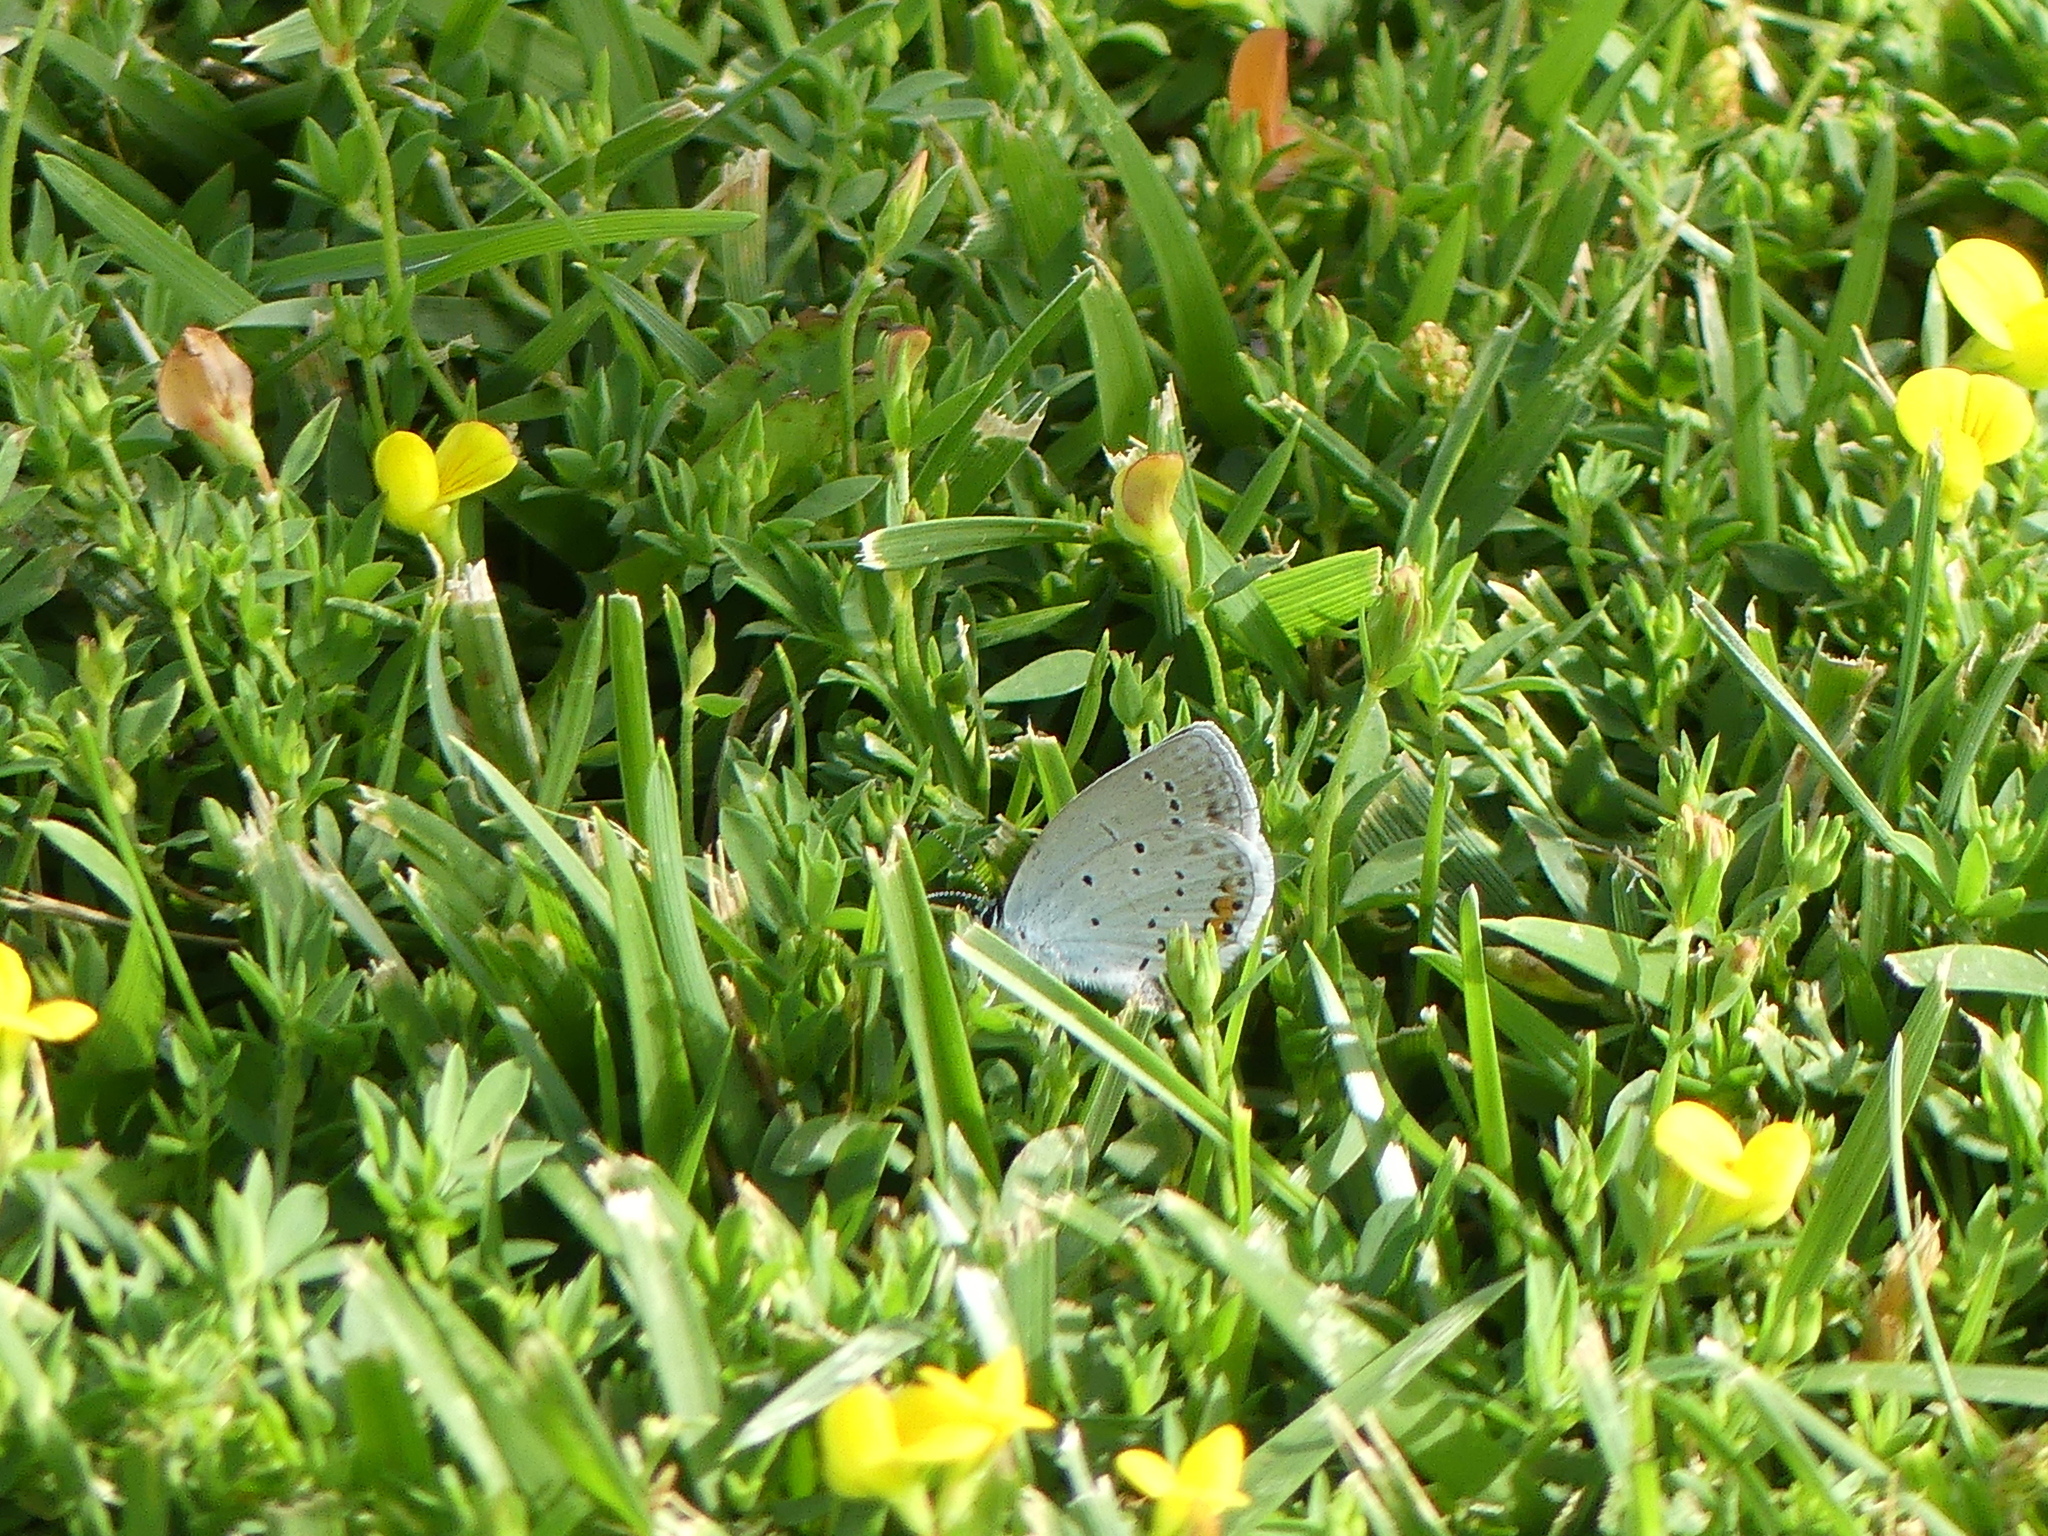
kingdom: Animalia
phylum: Arthropoda
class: Insecta
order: Lepidoptera
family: Lycaenidae
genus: Elkalyce
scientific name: Elkalyce argiades
